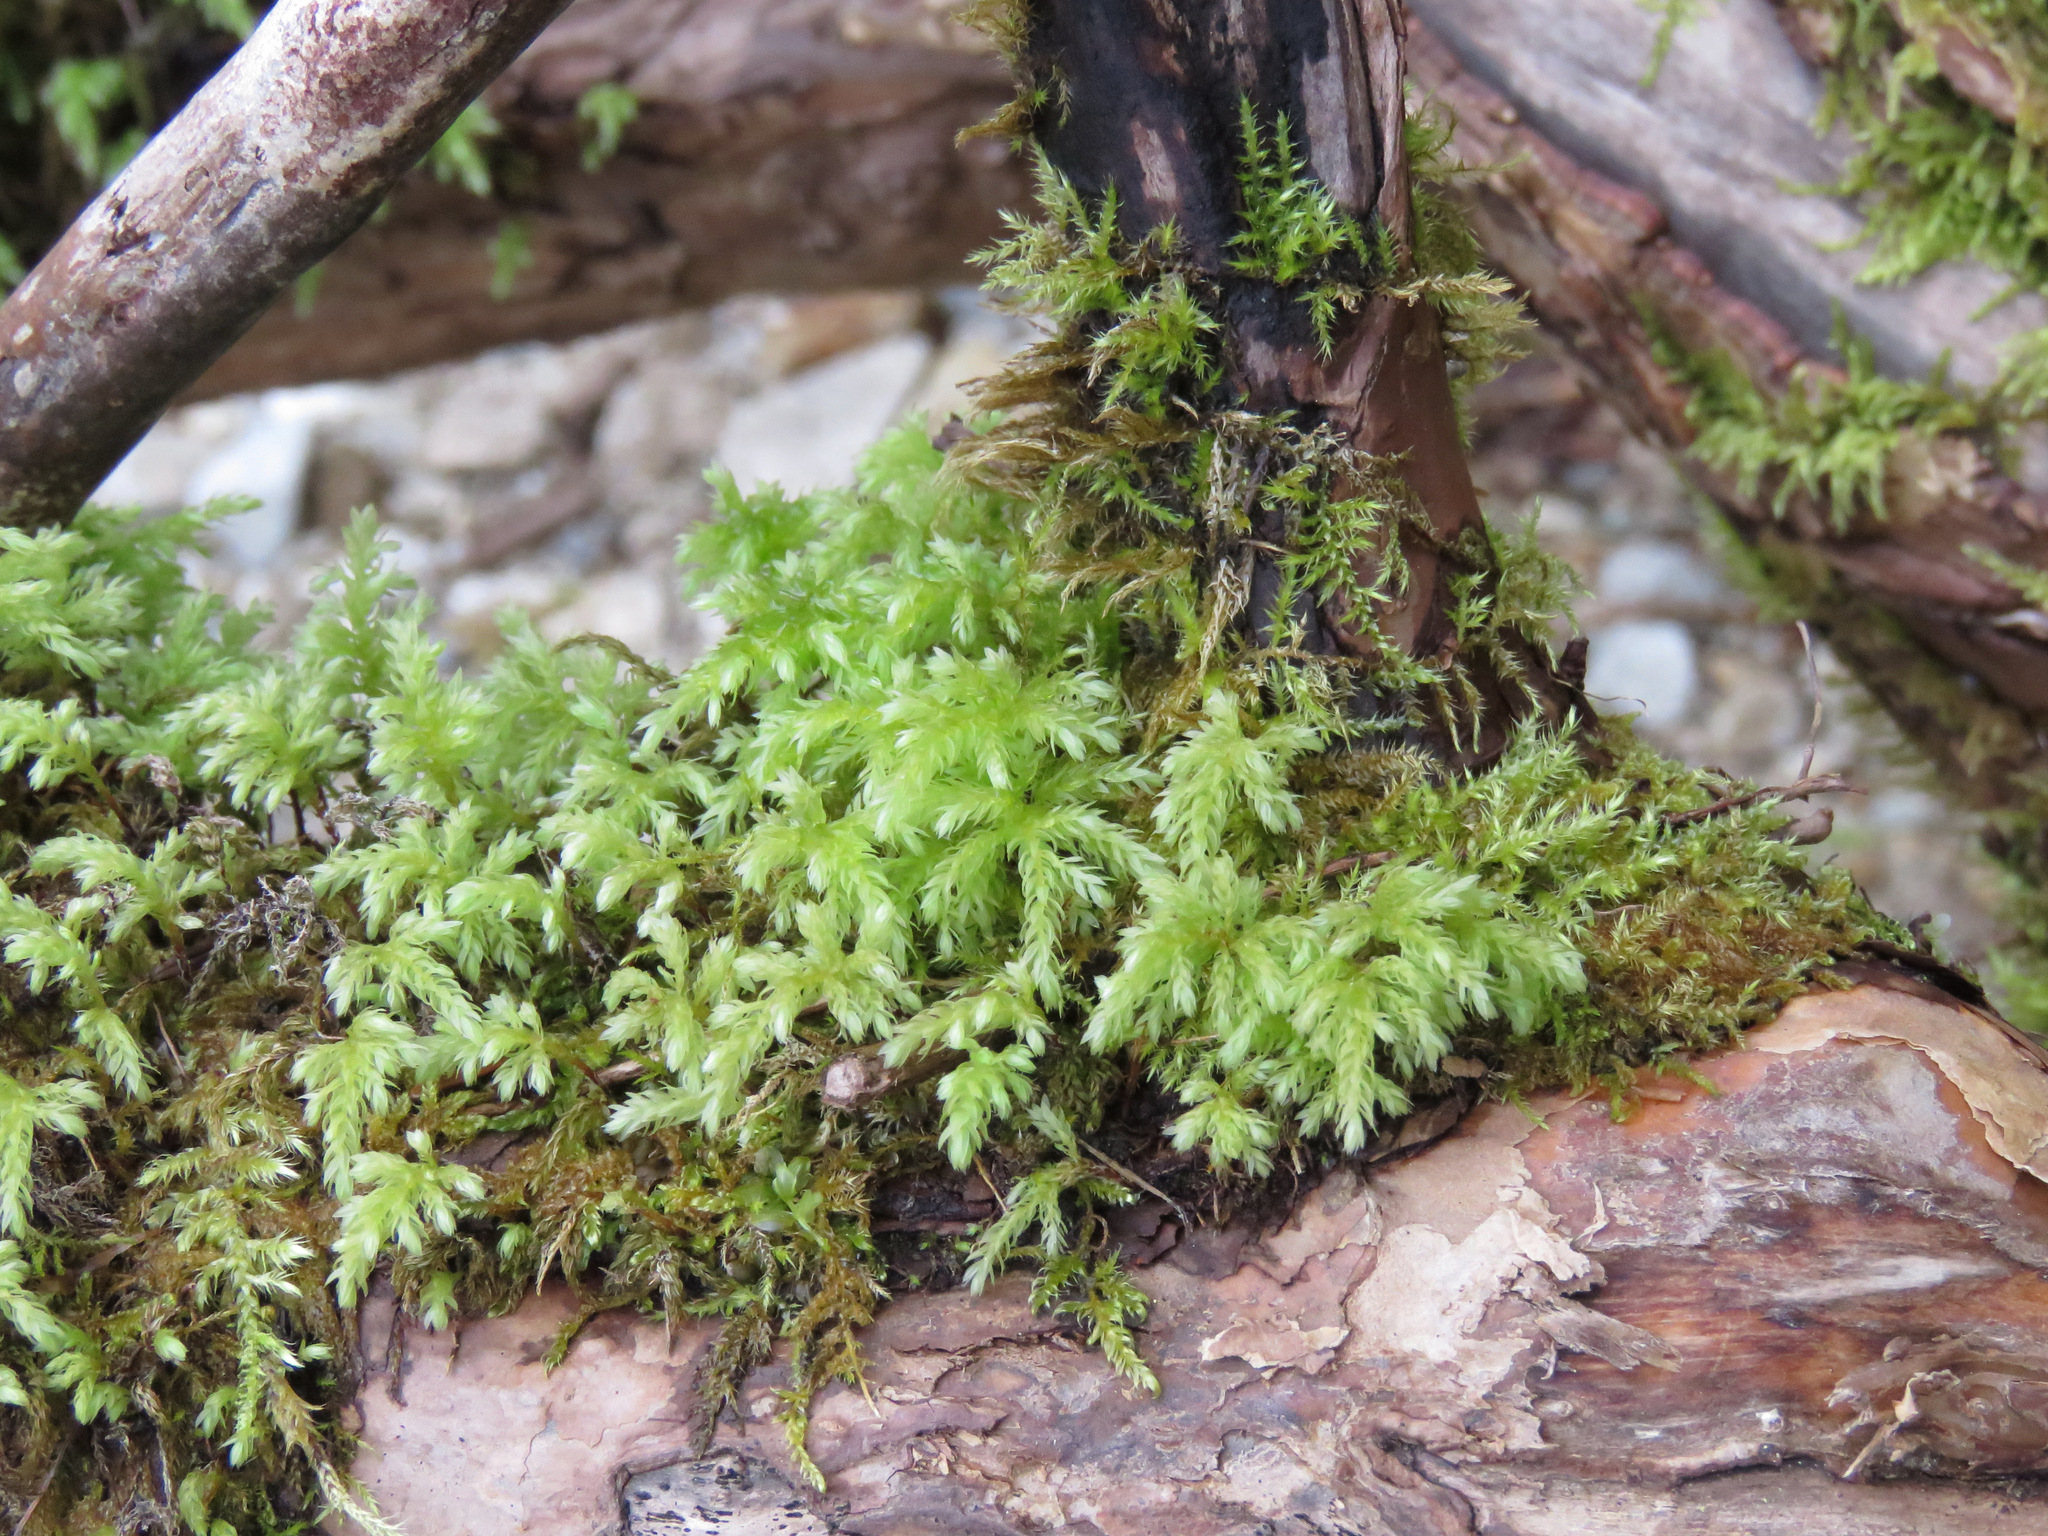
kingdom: Plantae
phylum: Bryophyta
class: Bryopsida
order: Bryales
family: Mniaceae
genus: Leucolepis
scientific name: Leucolepis acanthoneura
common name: Leucolepis umbrella moss
